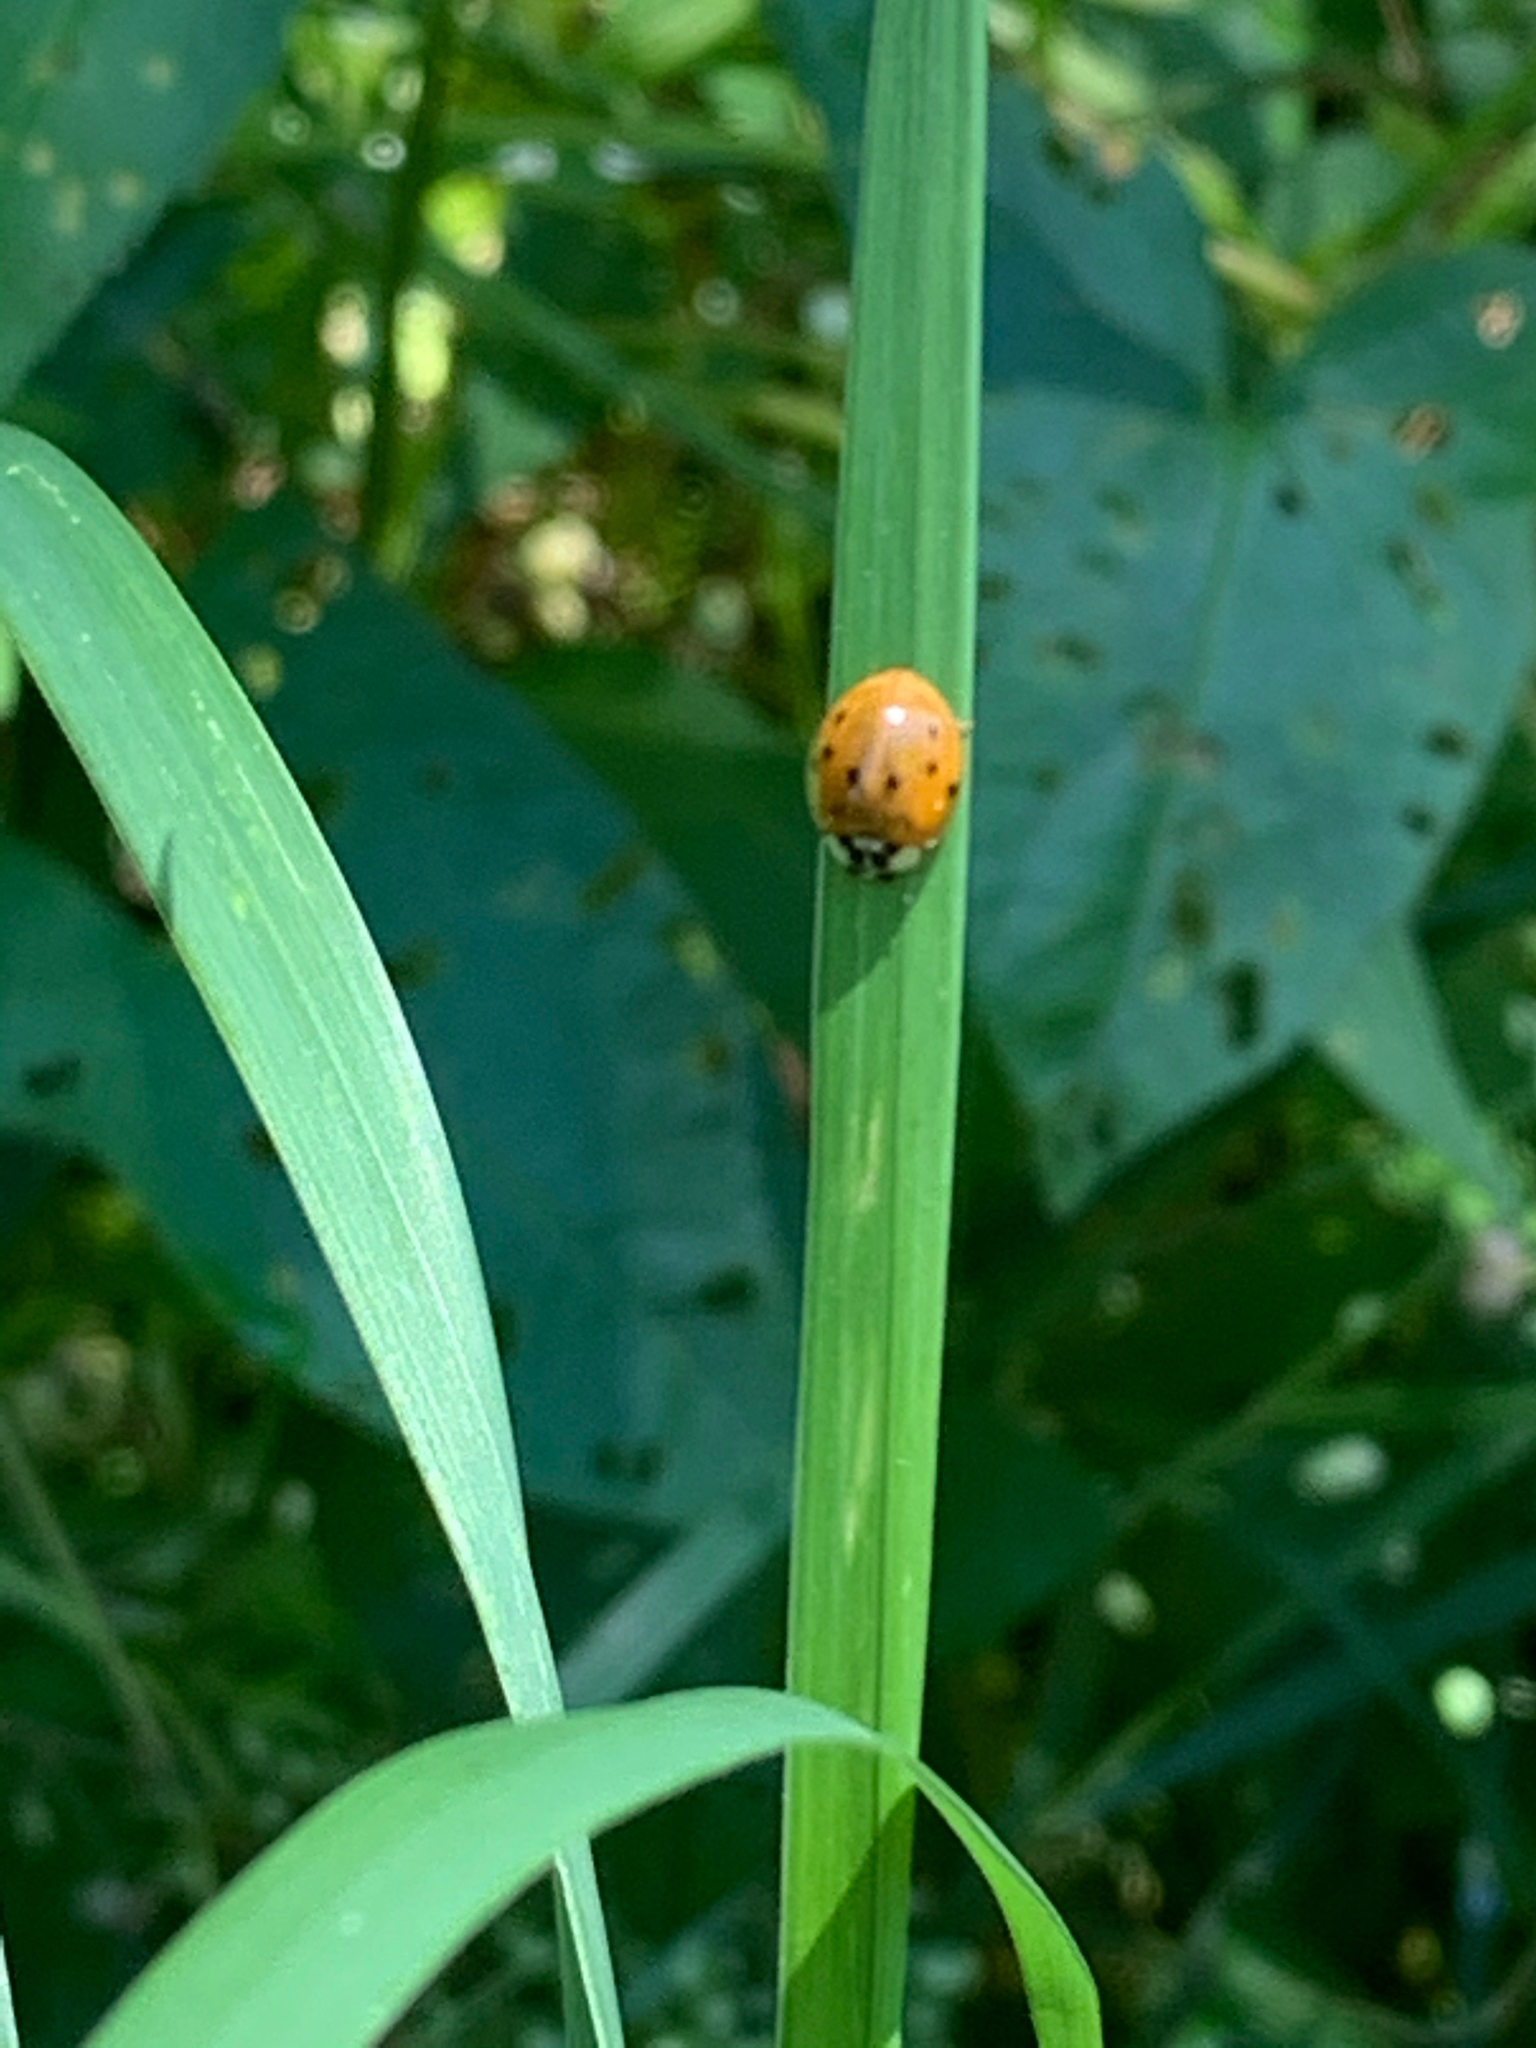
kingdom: Animalia
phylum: Arthropoda
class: Insecta
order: Coleoptera
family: Coccinellidae
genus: Harmonia
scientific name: Harmonia axyridis
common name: Harlequin ladybird
